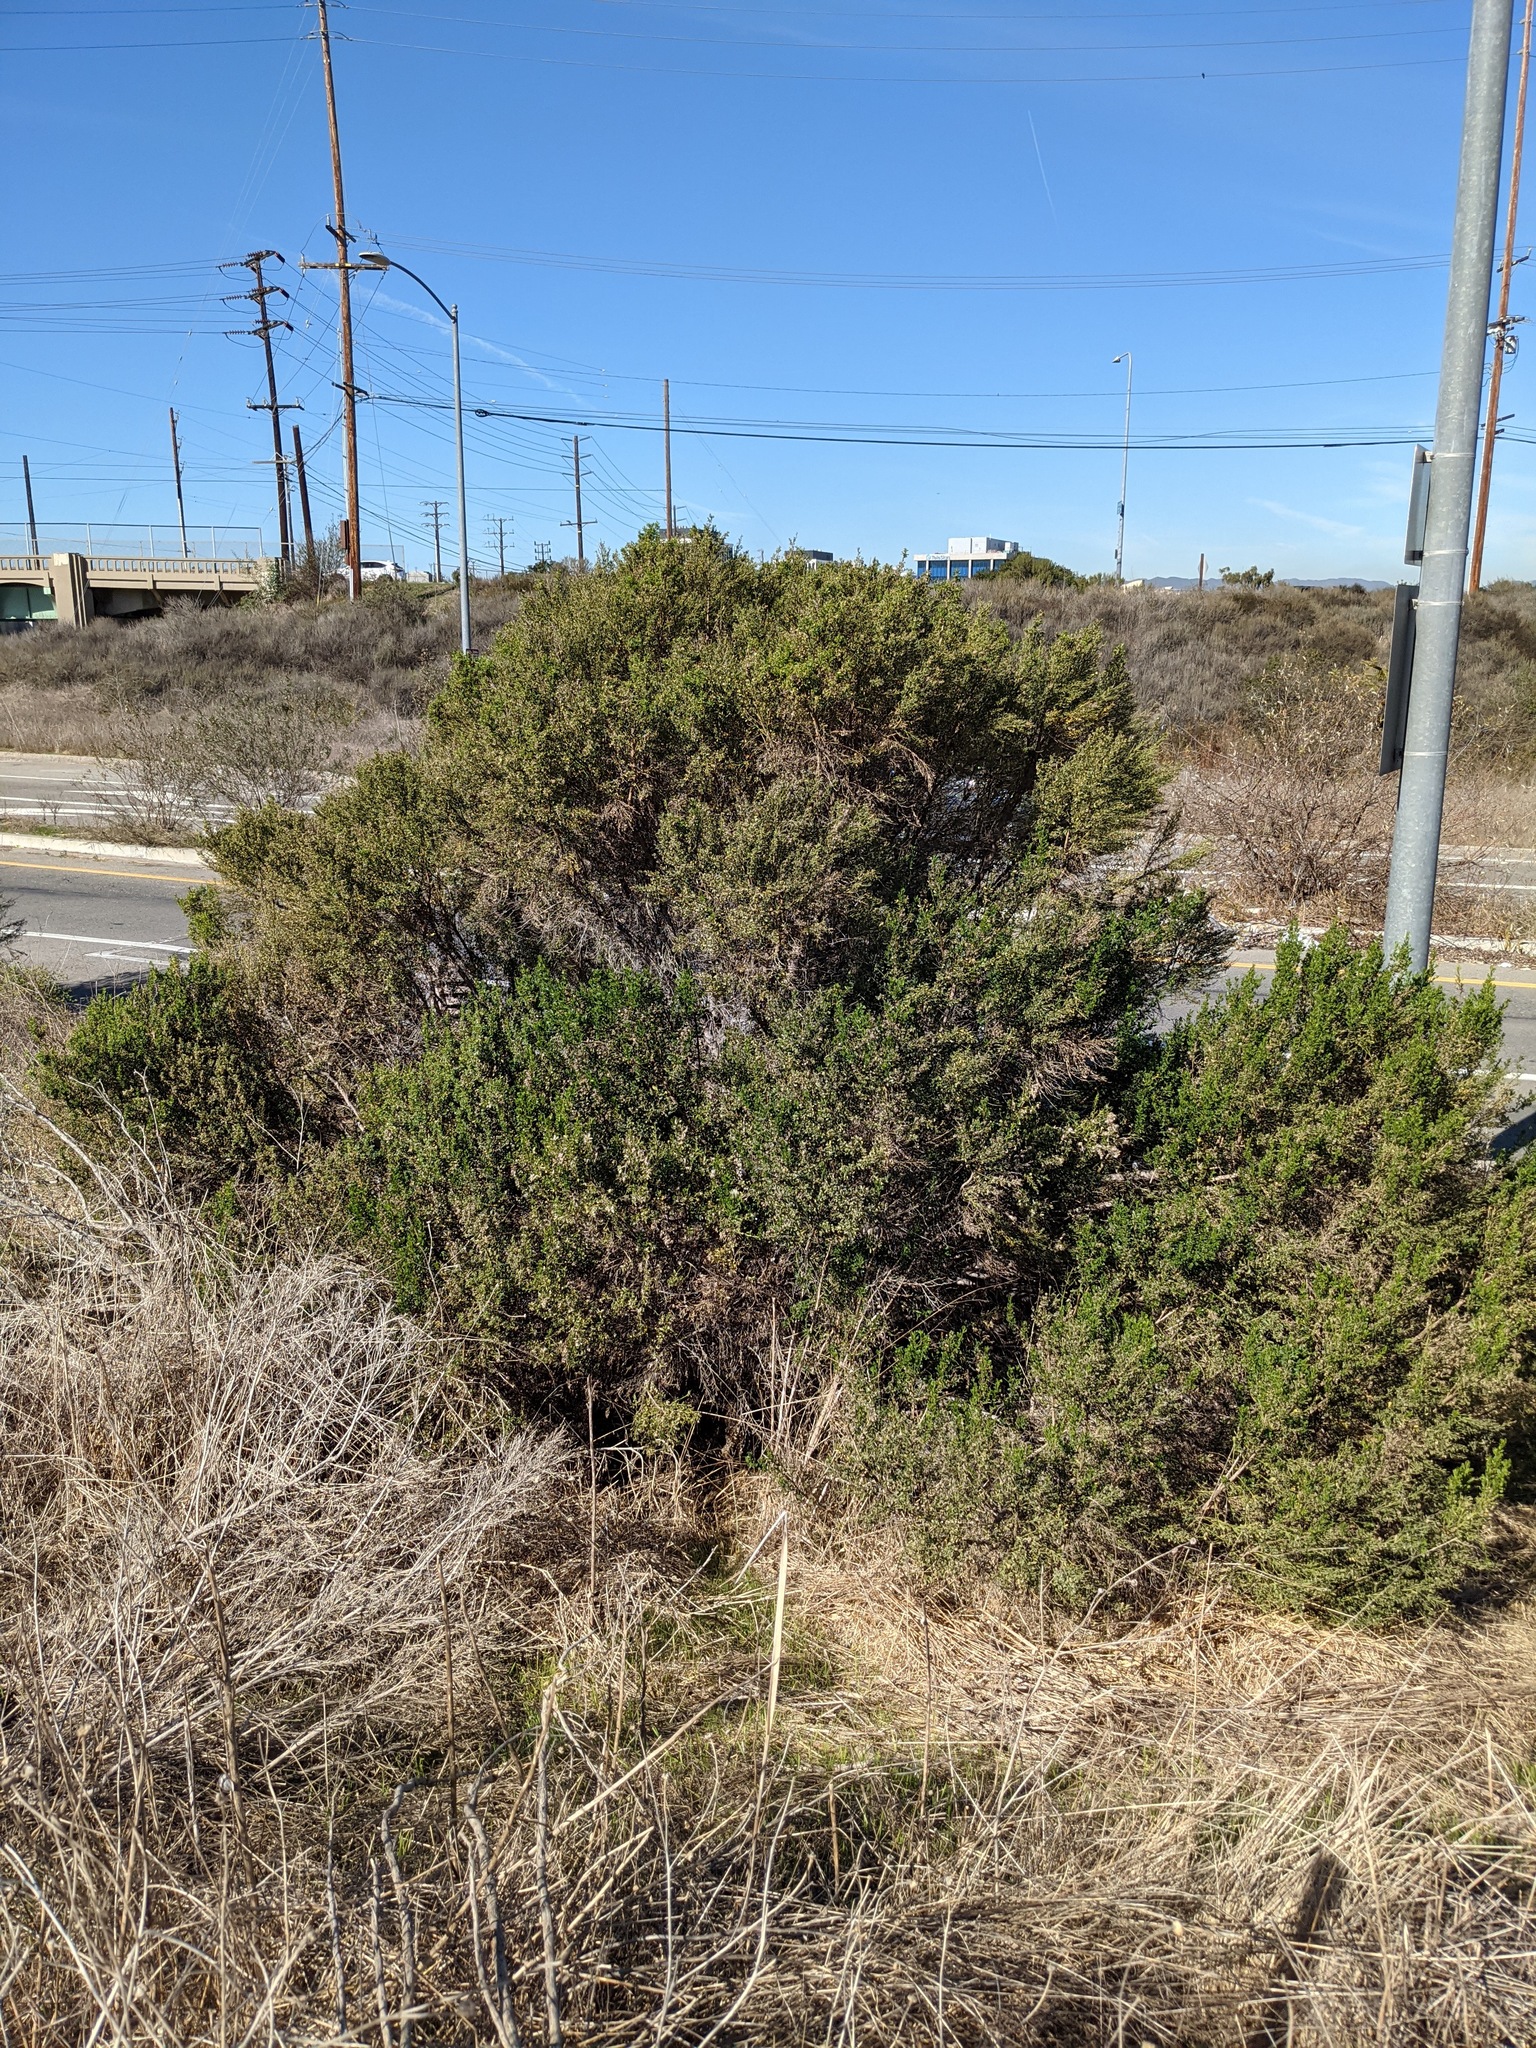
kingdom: Plantae
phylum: Tracheophyta
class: Magnoliopsida
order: Asterales
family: Asteraceae
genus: Baccharis
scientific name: Baccharis pilularis
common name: Coyotebrush
